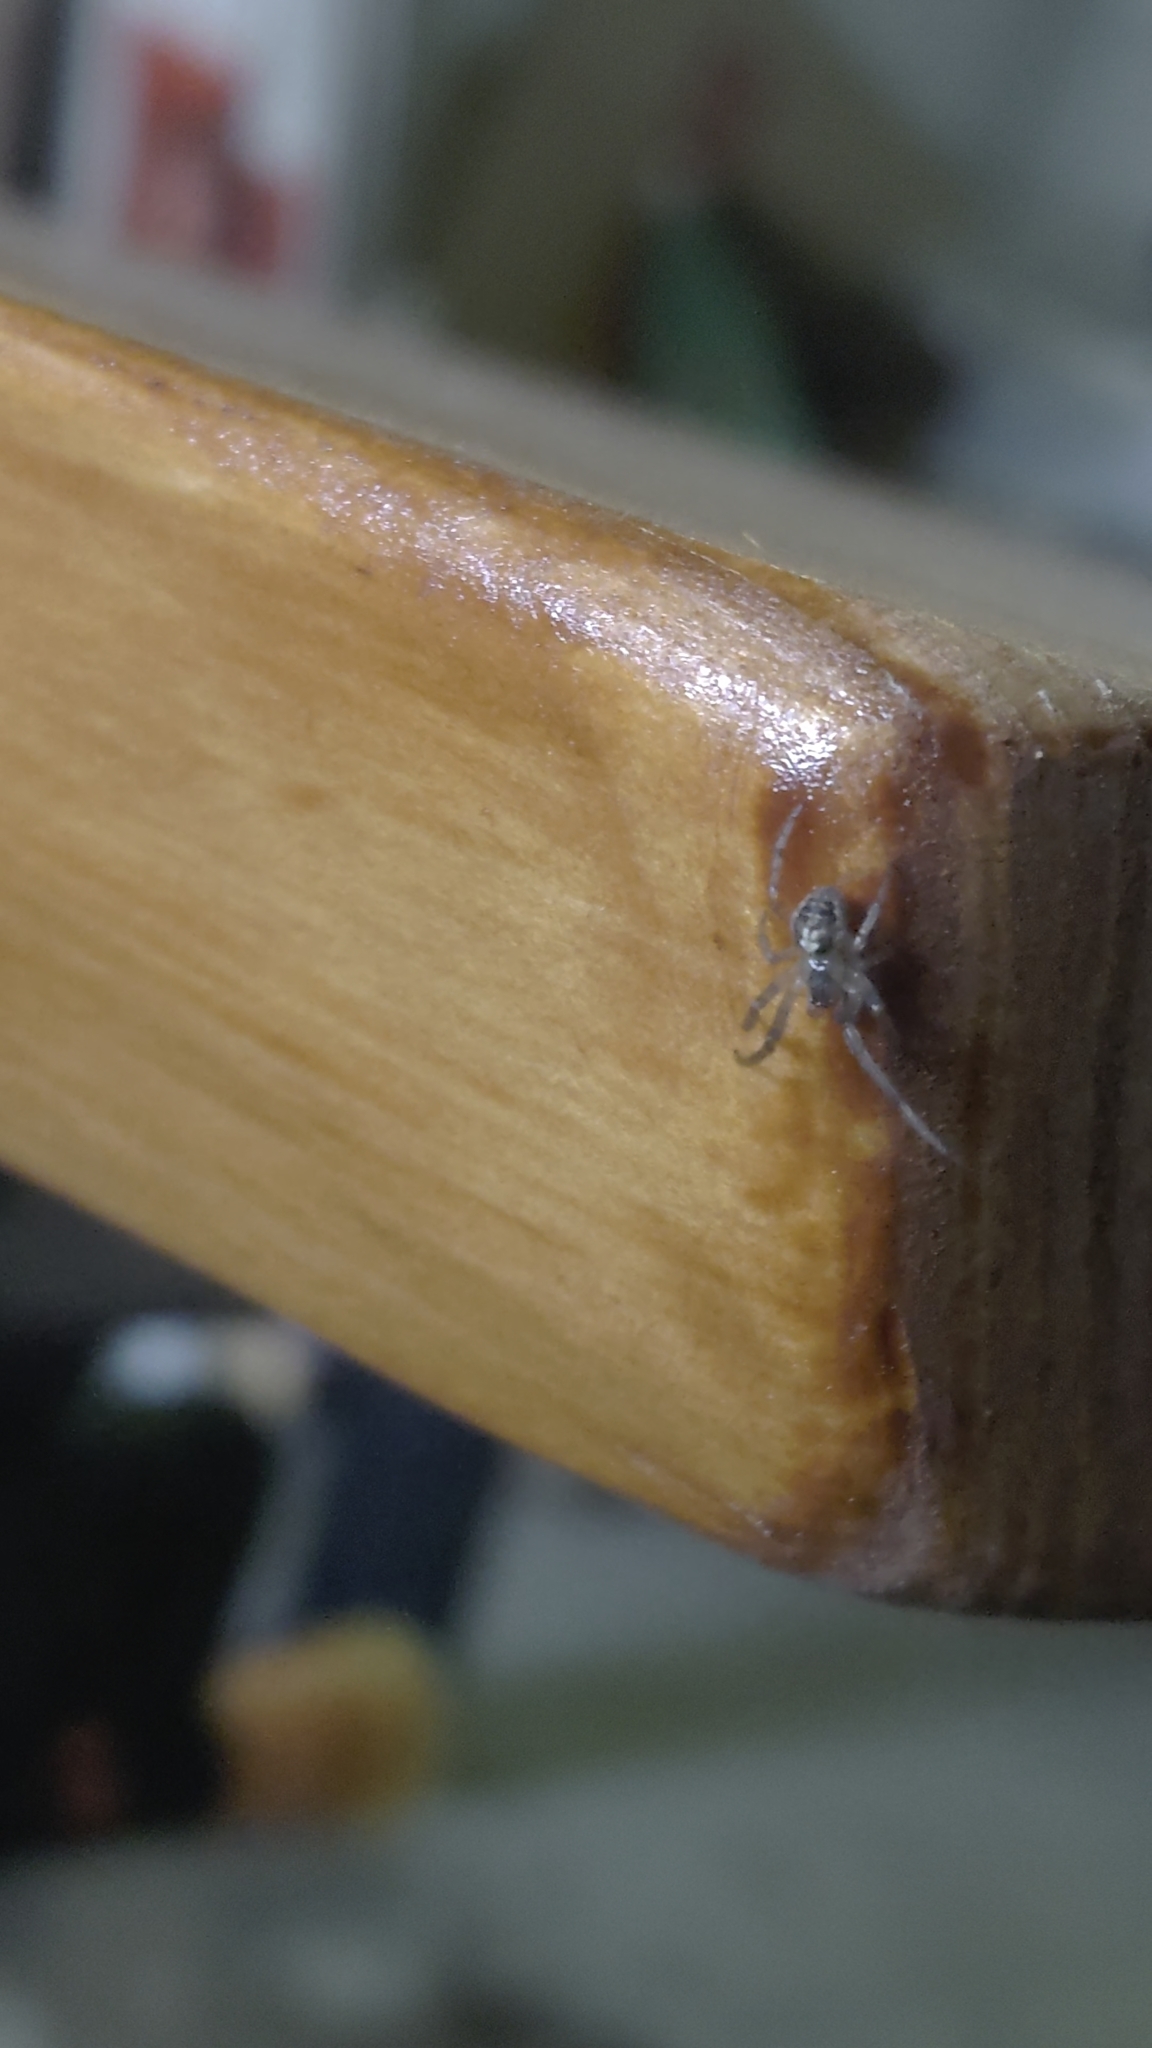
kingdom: Animalia
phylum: Arthropoda
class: Arachnida
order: Araneae
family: Araneidae
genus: Zygiella
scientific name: Zygiella x-notata
